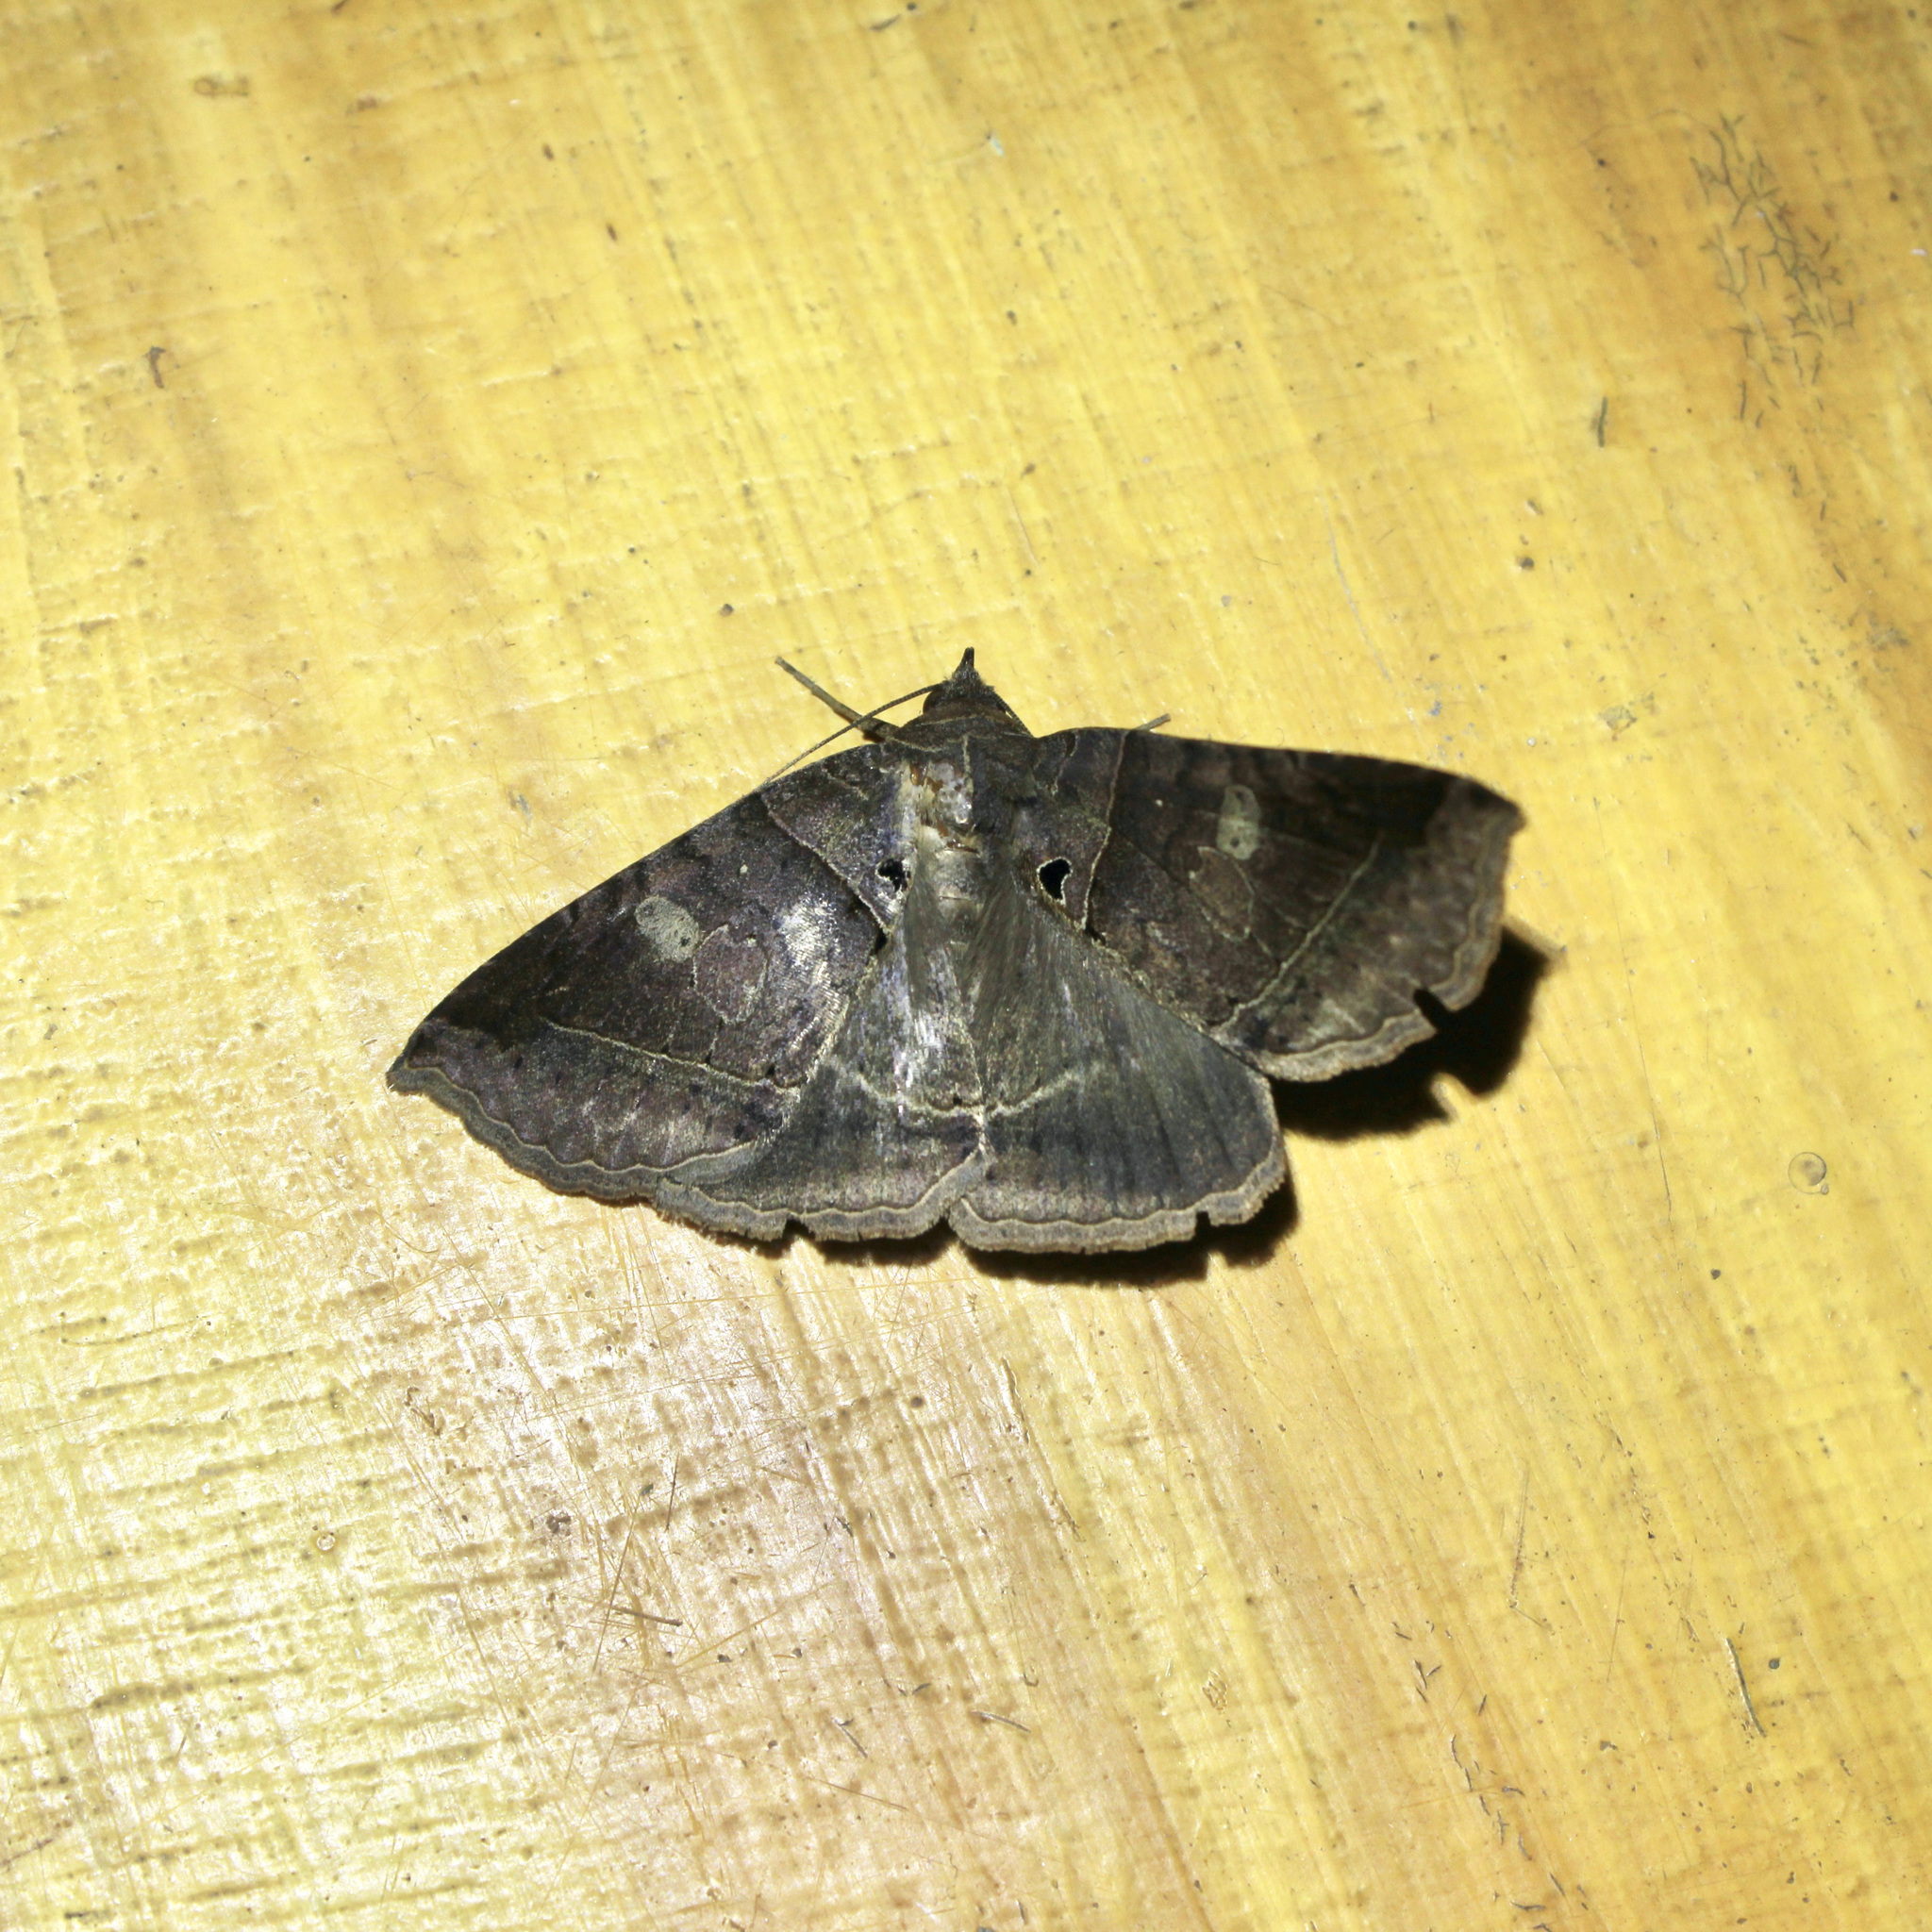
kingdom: Animalia
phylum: Arthropoda
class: Insecta
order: Lepidoptera
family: Erebidae
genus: Celiptera
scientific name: Celiptera levina
